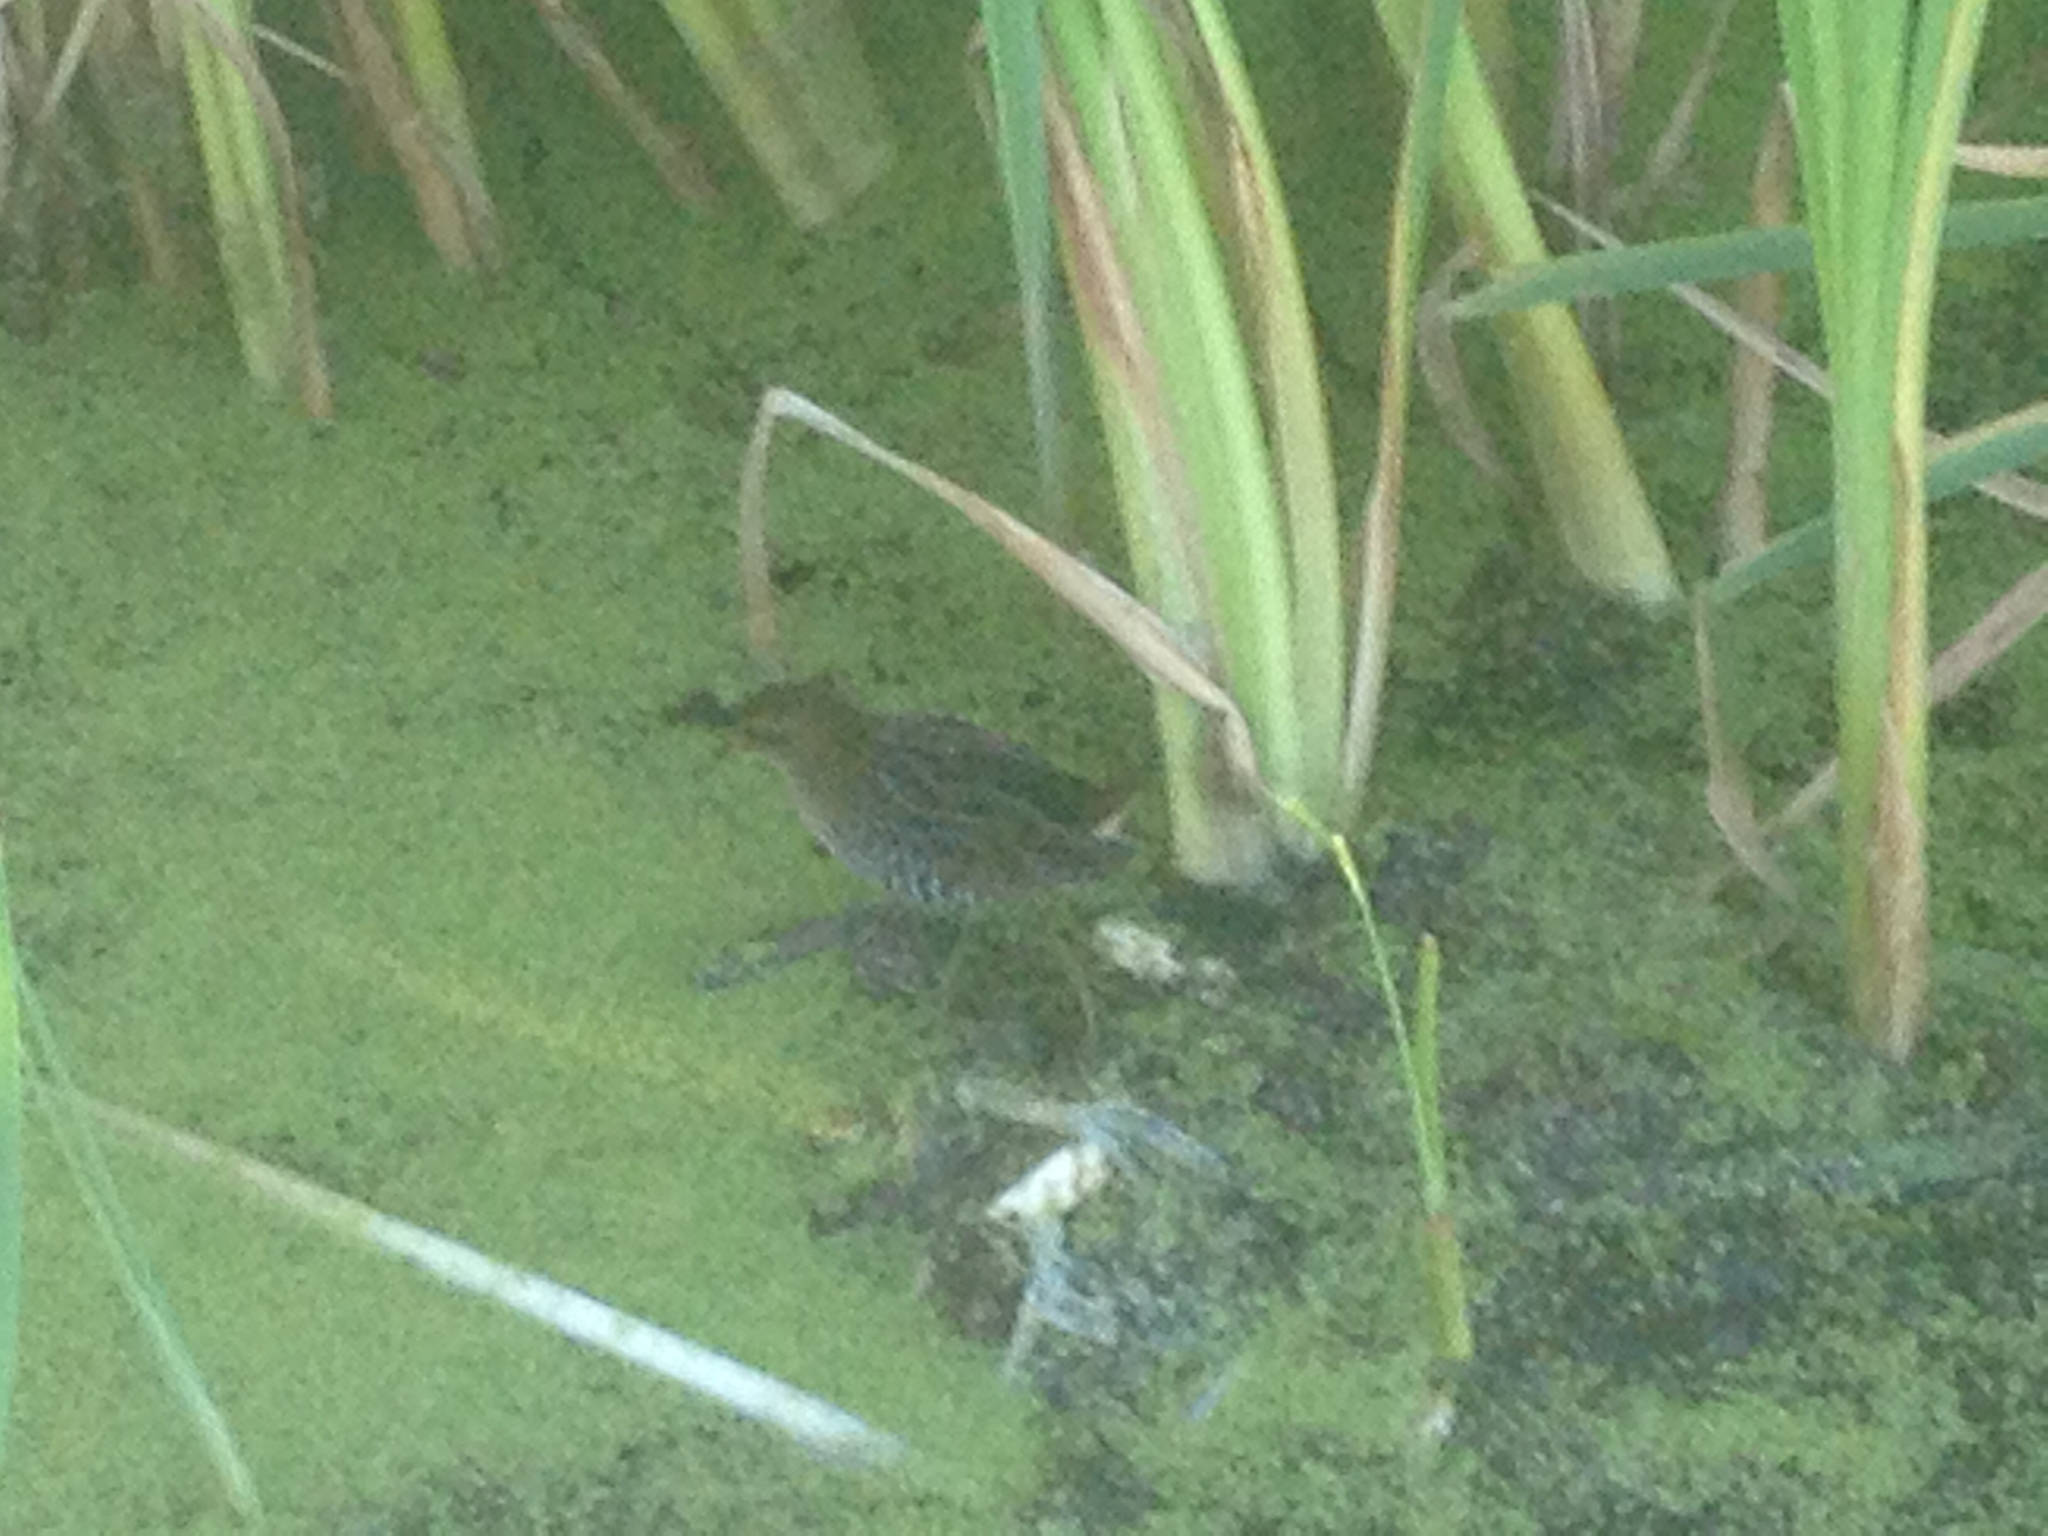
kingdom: Animalia
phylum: Chordata
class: Aves
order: Gruiformes
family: Rallidae
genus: Porzana
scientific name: Porzana carolina
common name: Sora
